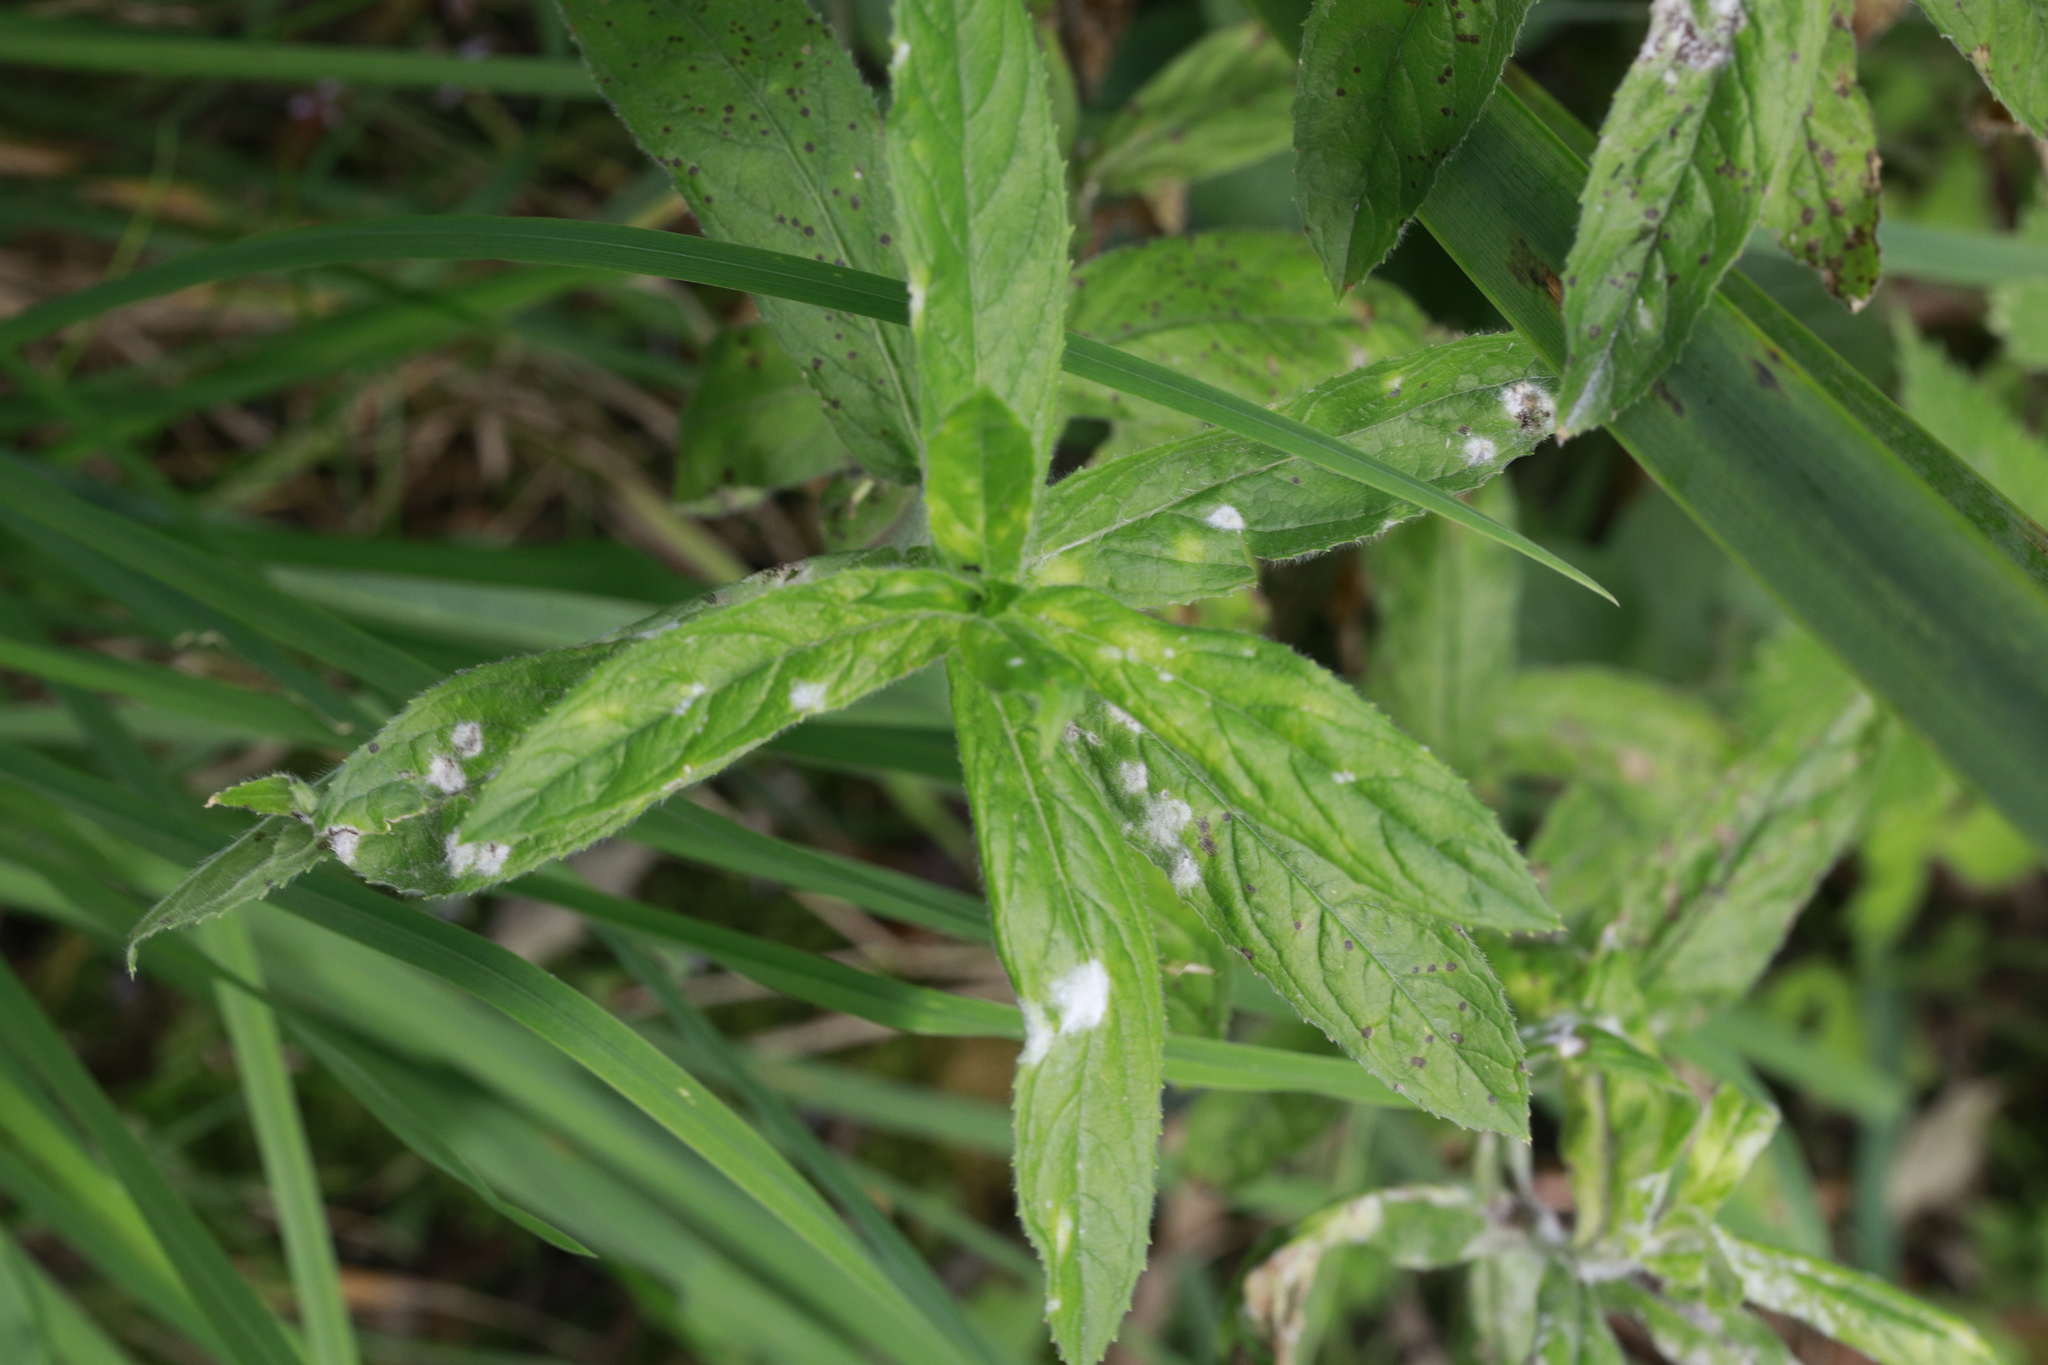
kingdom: Fungi
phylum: Ascomycota
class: Leotiomycetes
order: Helotiales
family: Erysiphaceae
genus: Podosphaera
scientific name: Podosphaera epilobii
